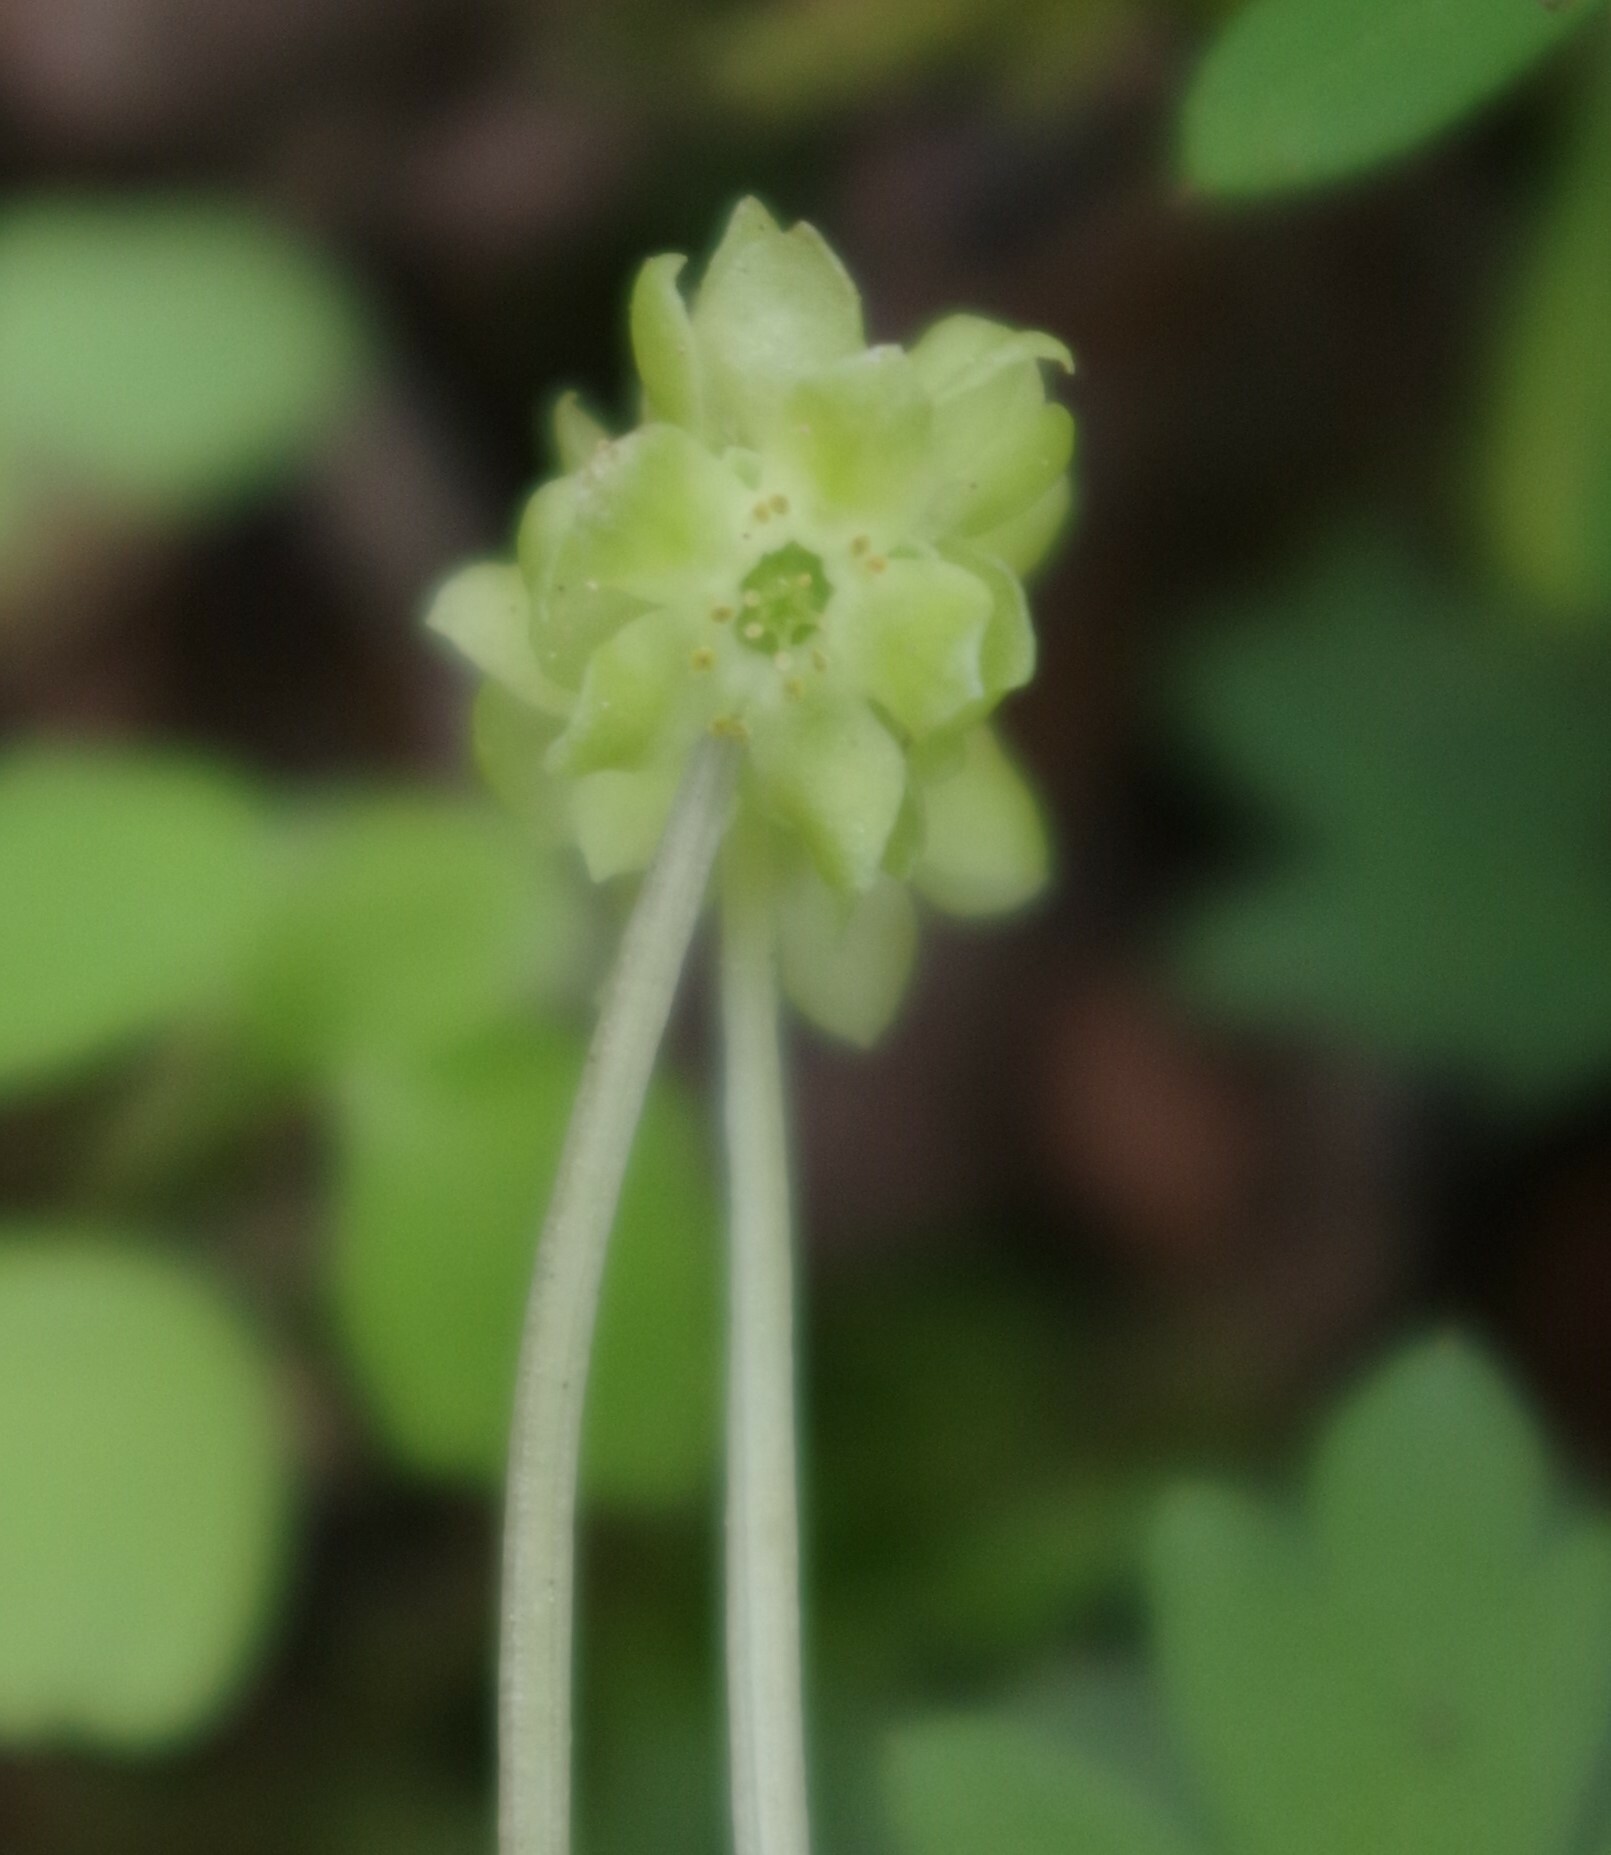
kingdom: Plantae
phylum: Tracheophyta
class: Magnoliopsida
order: Dipsacales
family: Viburnaceae
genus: Adoxa
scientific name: Adoxa moschatellina
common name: Moschatel
